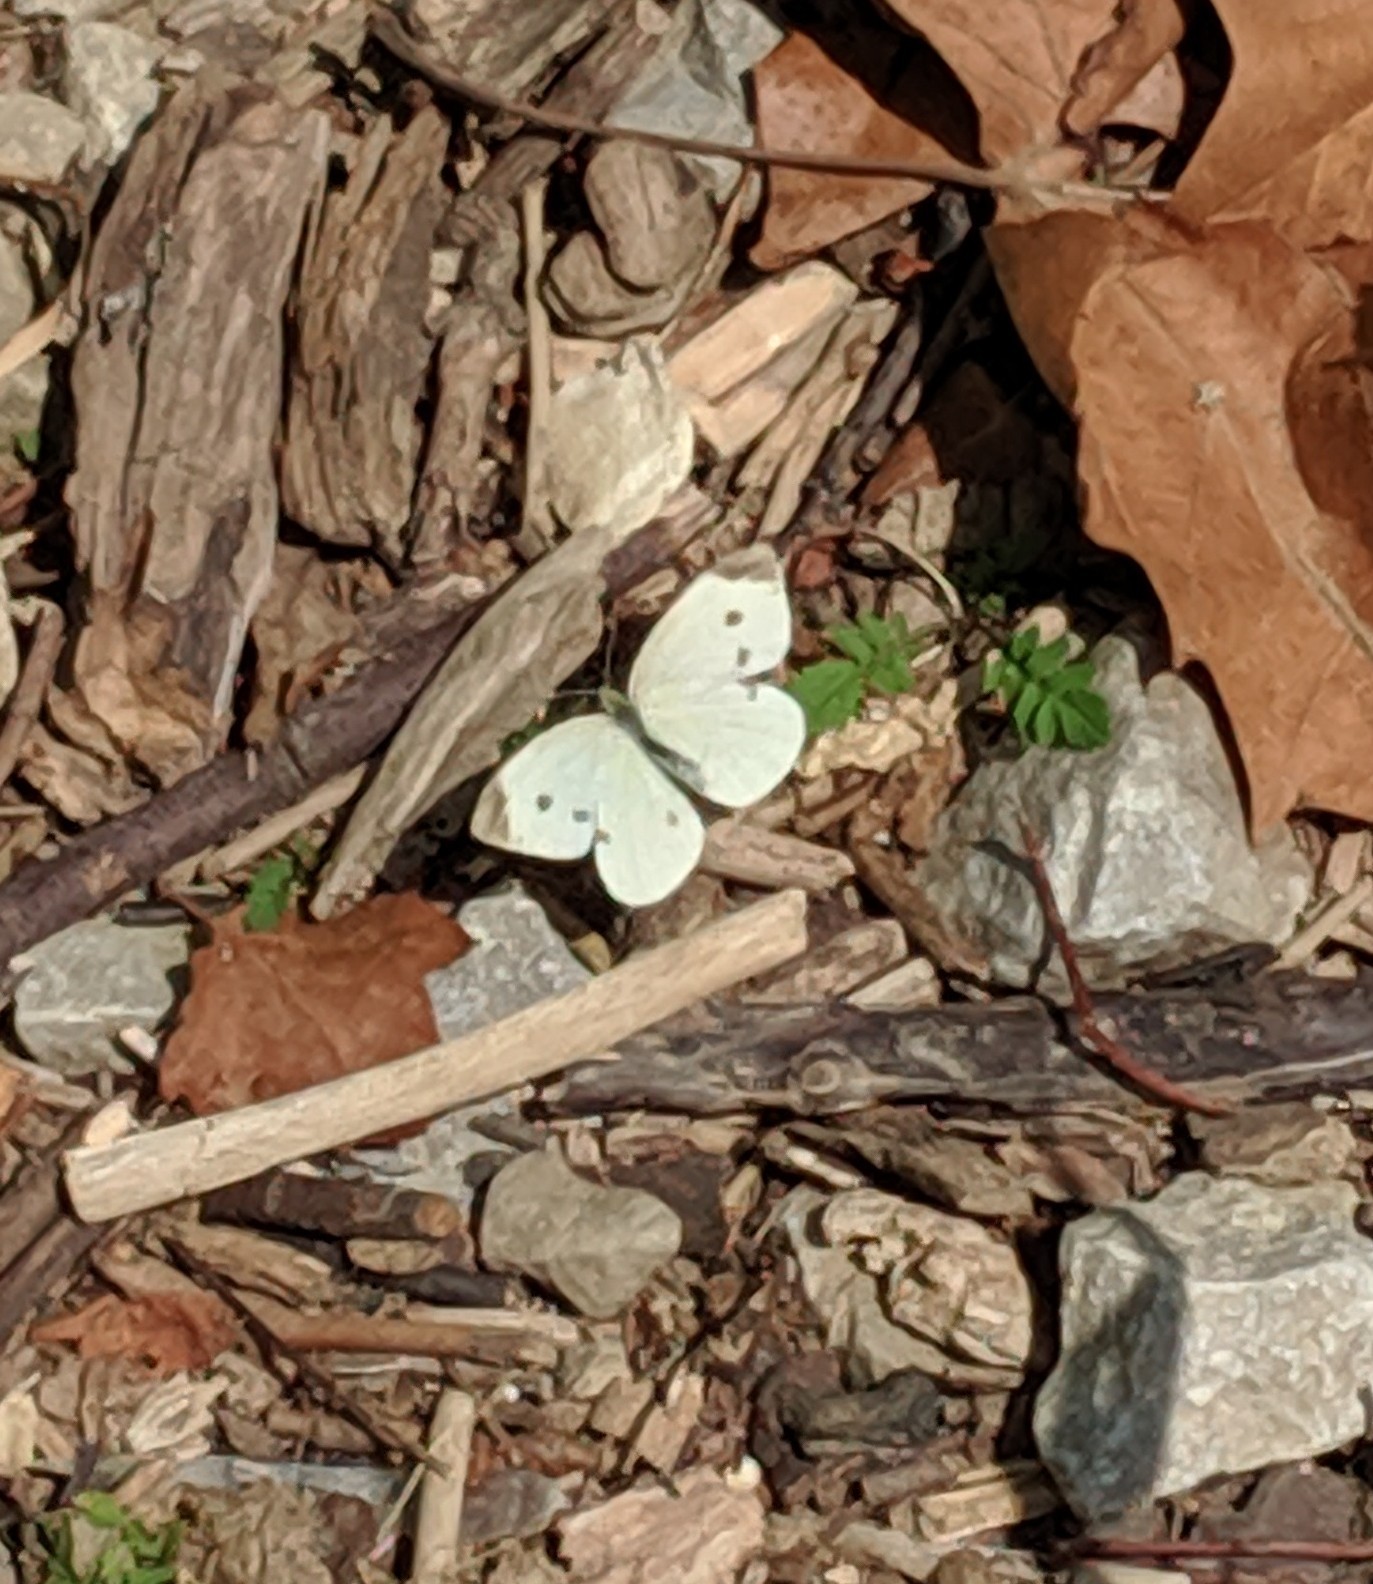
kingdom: Animalia
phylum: Arthropoda
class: Insecta
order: Lepidoptera
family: Pieridae
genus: Pieris
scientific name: Pieris rapae
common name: Small white
